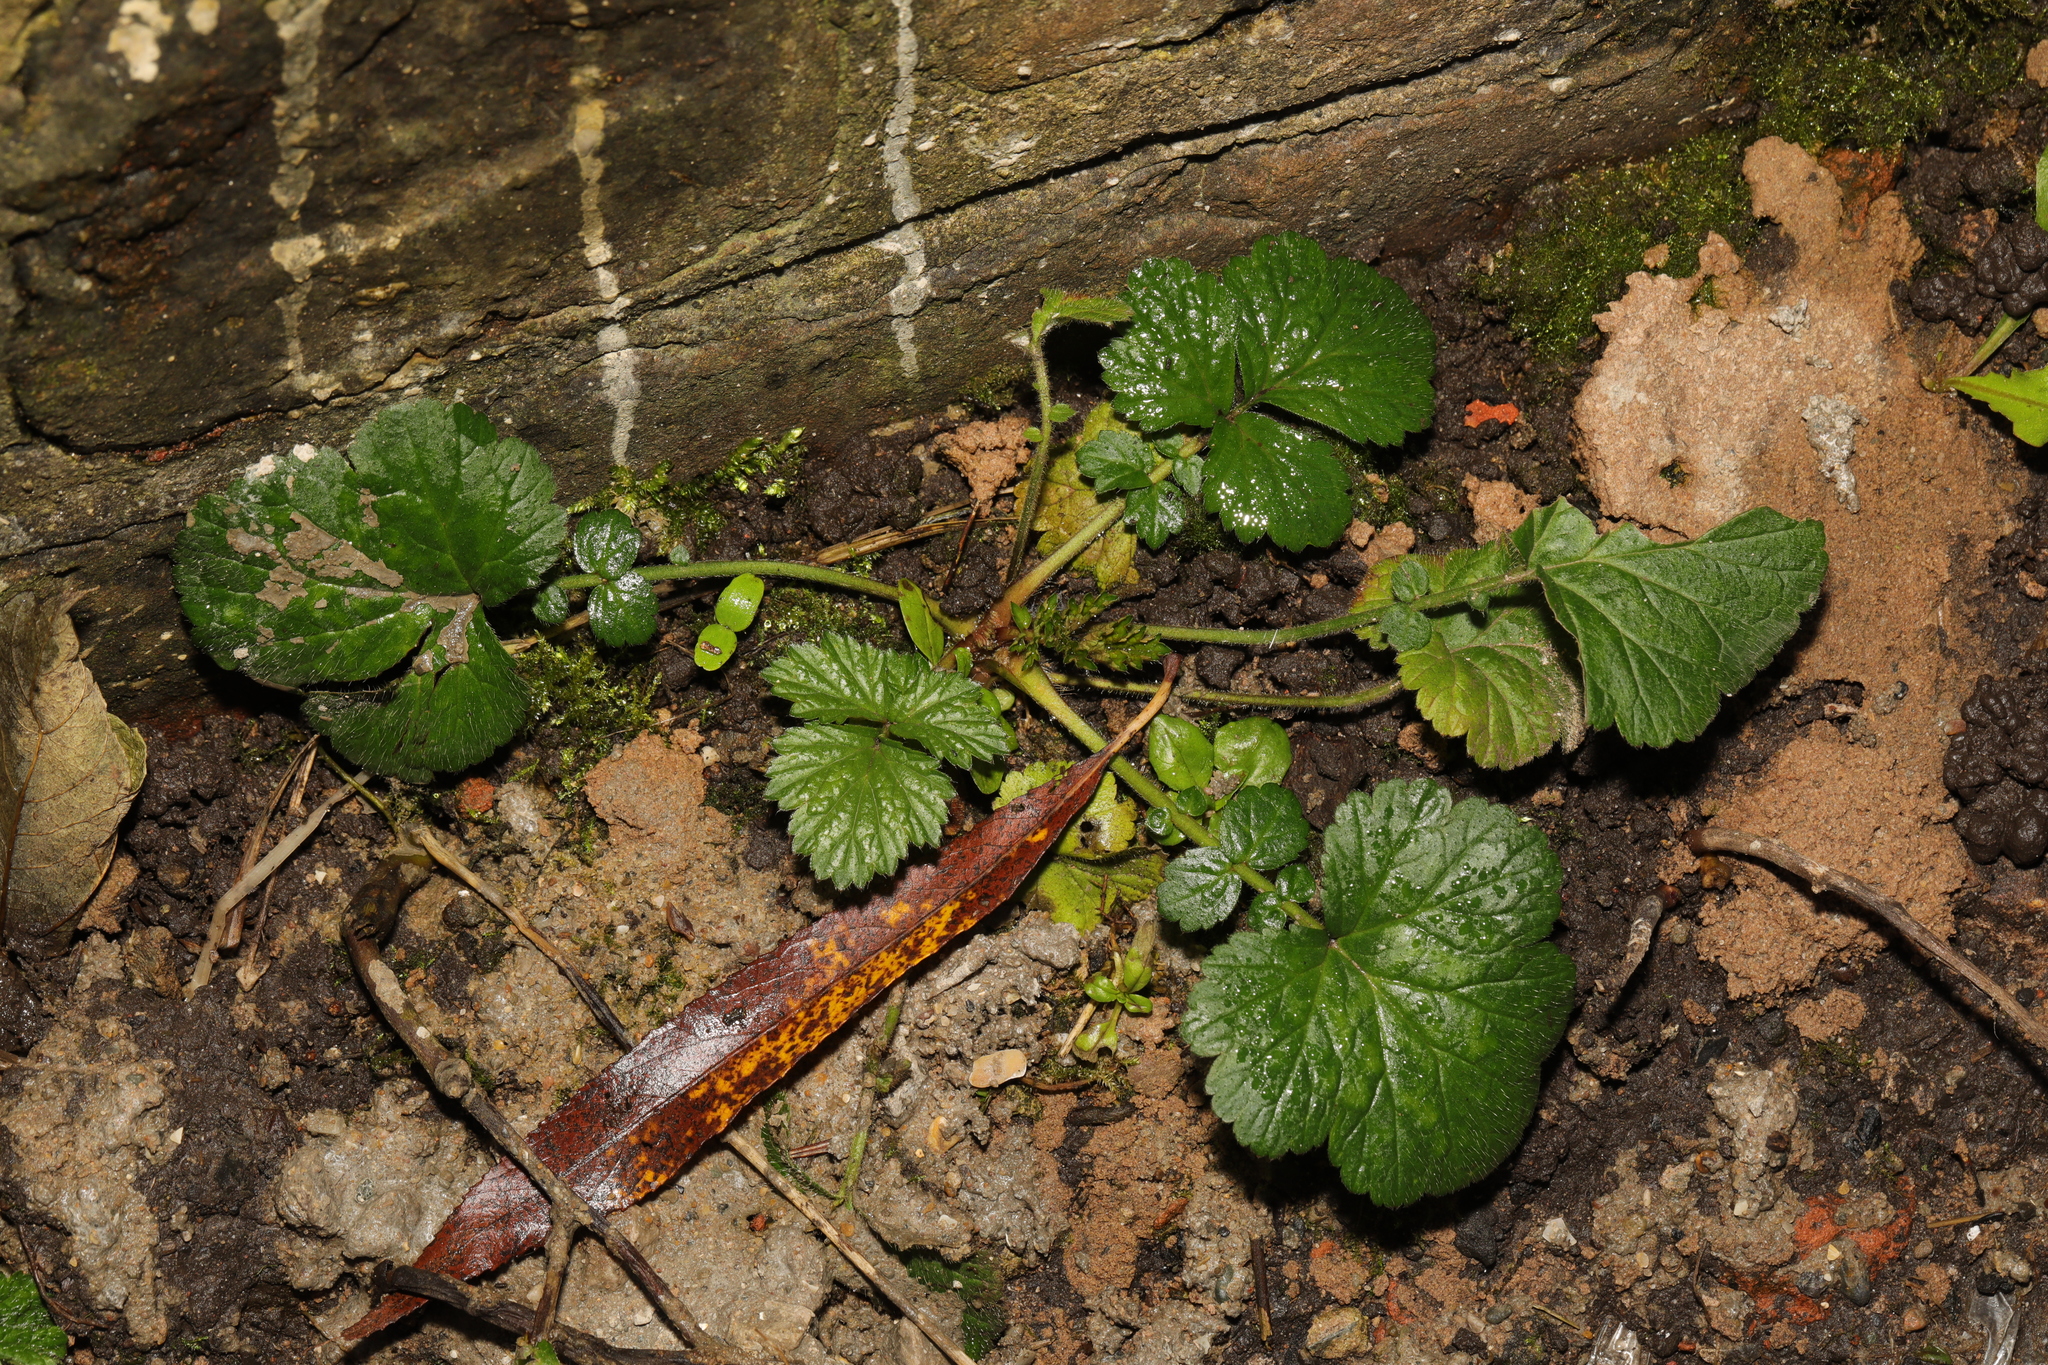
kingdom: Plantae
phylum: Tracheophyta
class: Magnoliopsida
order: Rosales
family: Rosaceae
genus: Geum
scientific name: Geum urbanum
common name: Wood avens
